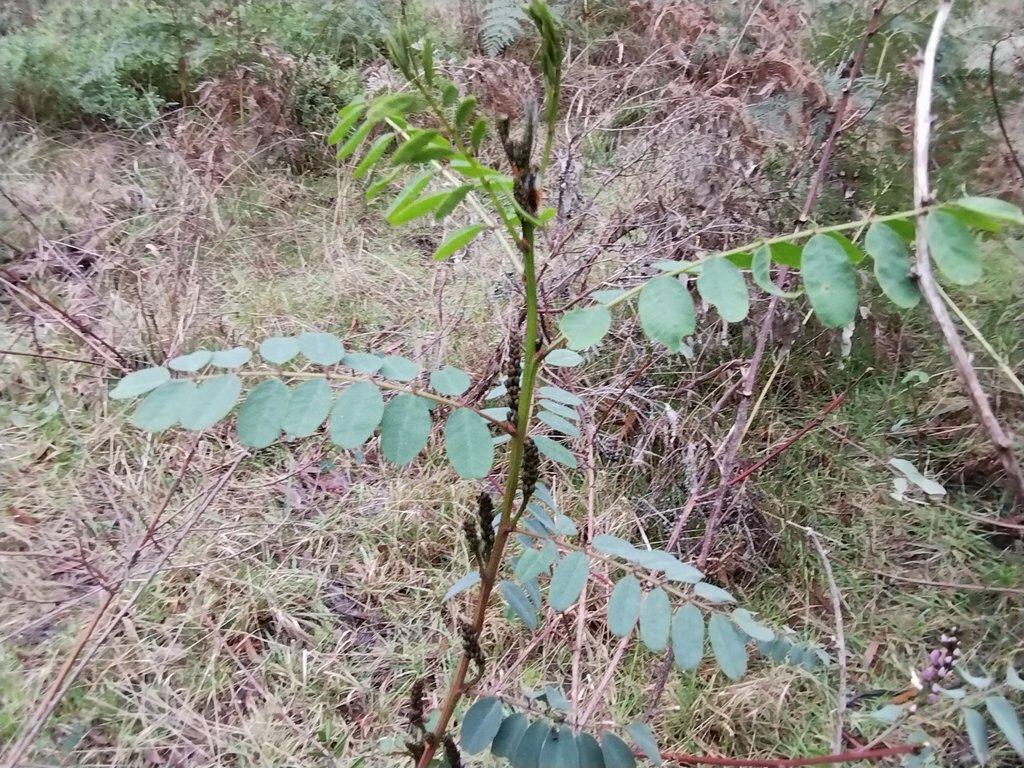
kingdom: Plantae
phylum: Tracheophyta
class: Magnoliopsida
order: Fabales
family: Fabaceae
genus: Indigofera
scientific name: Indigofera australis
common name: Australian indigo
